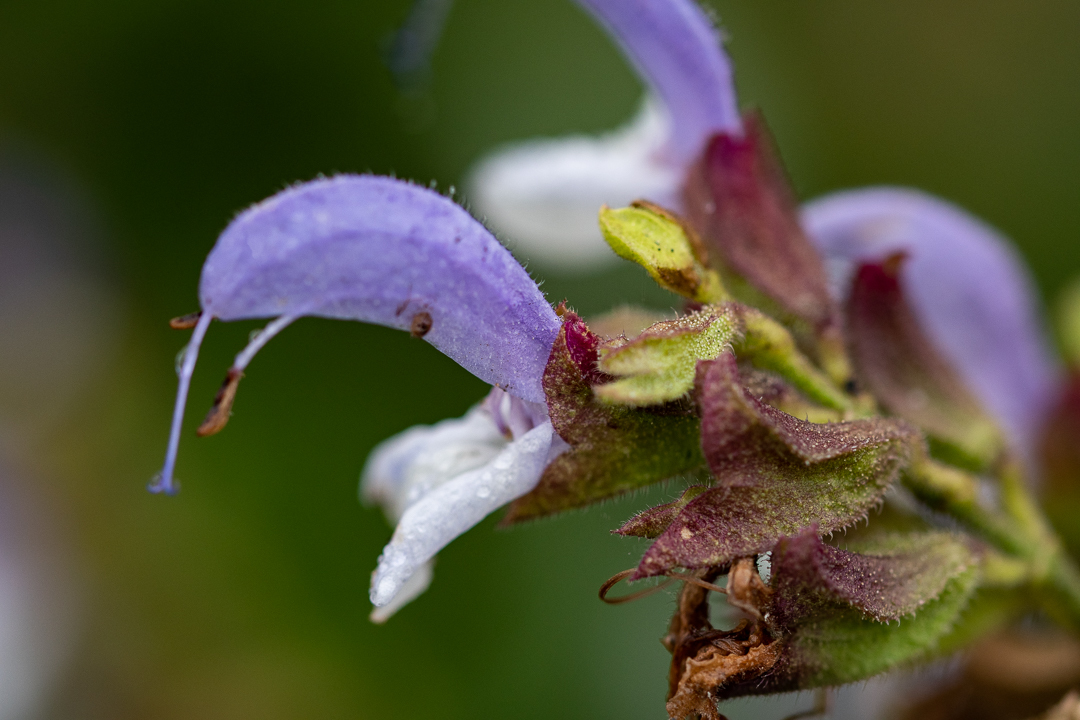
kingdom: Plantae
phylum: Tracheophyta
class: Magnoliopsida
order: Lamiales
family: Lamiaceae
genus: Salvia
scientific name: Salvia chamelaeagnea
